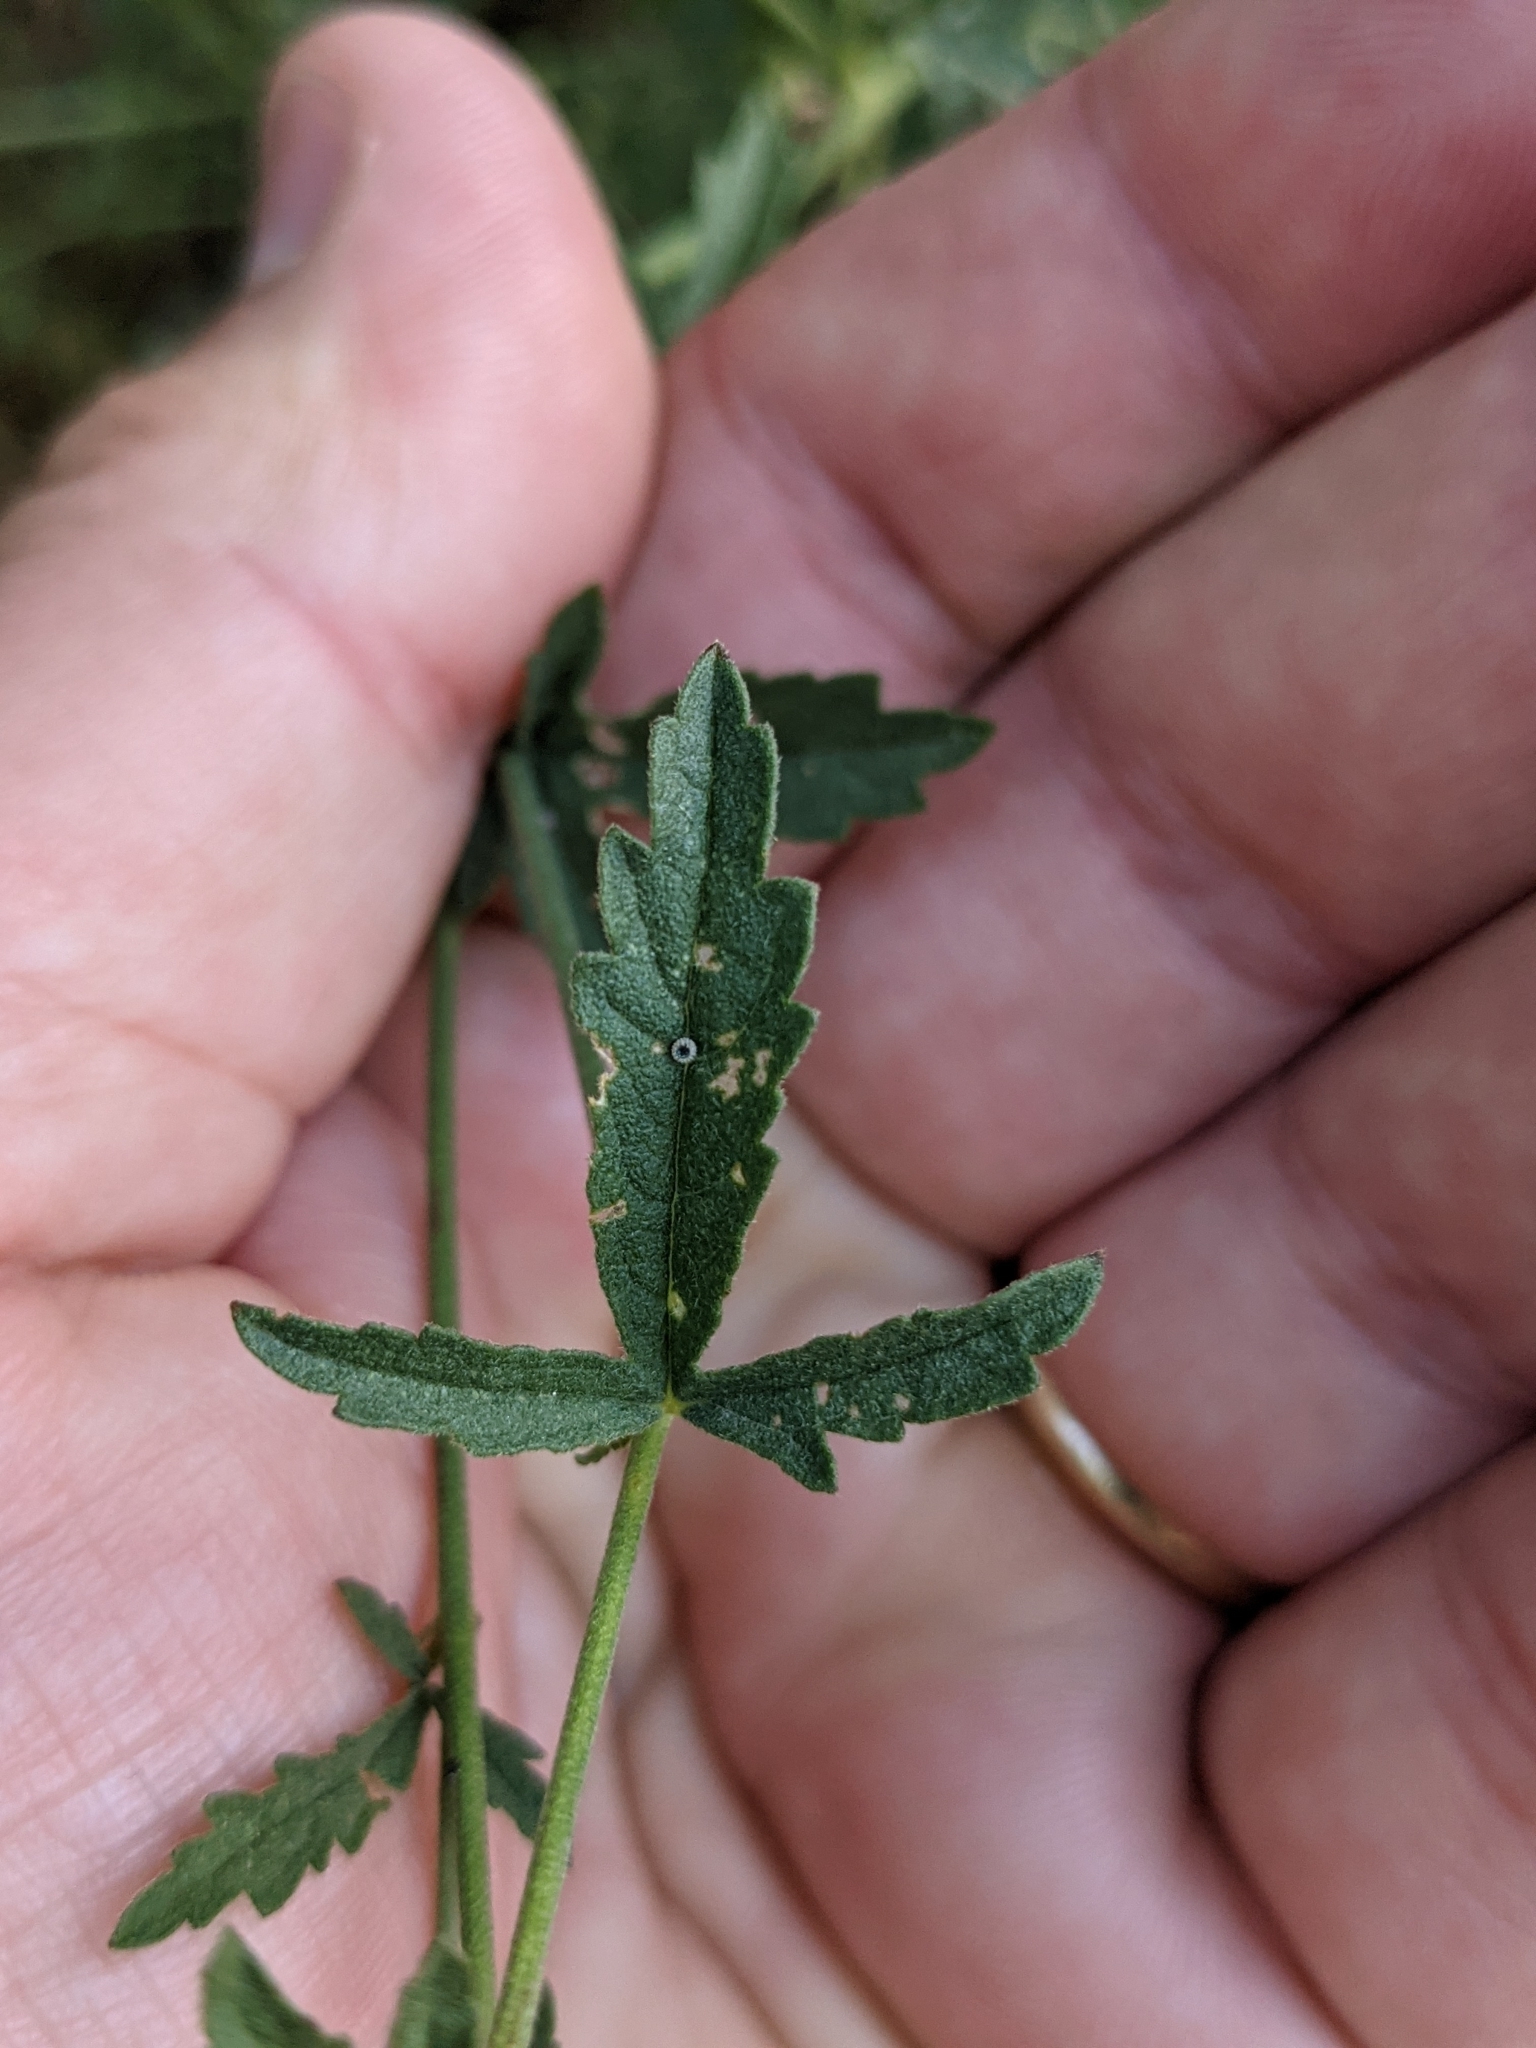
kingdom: Plantae
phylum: Tracheophyta
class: Magnoliopsida
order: Malvales
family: Malvaceae
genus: Althaea
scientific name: Althaea cannabina
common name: Palm-leaf marshmallow
